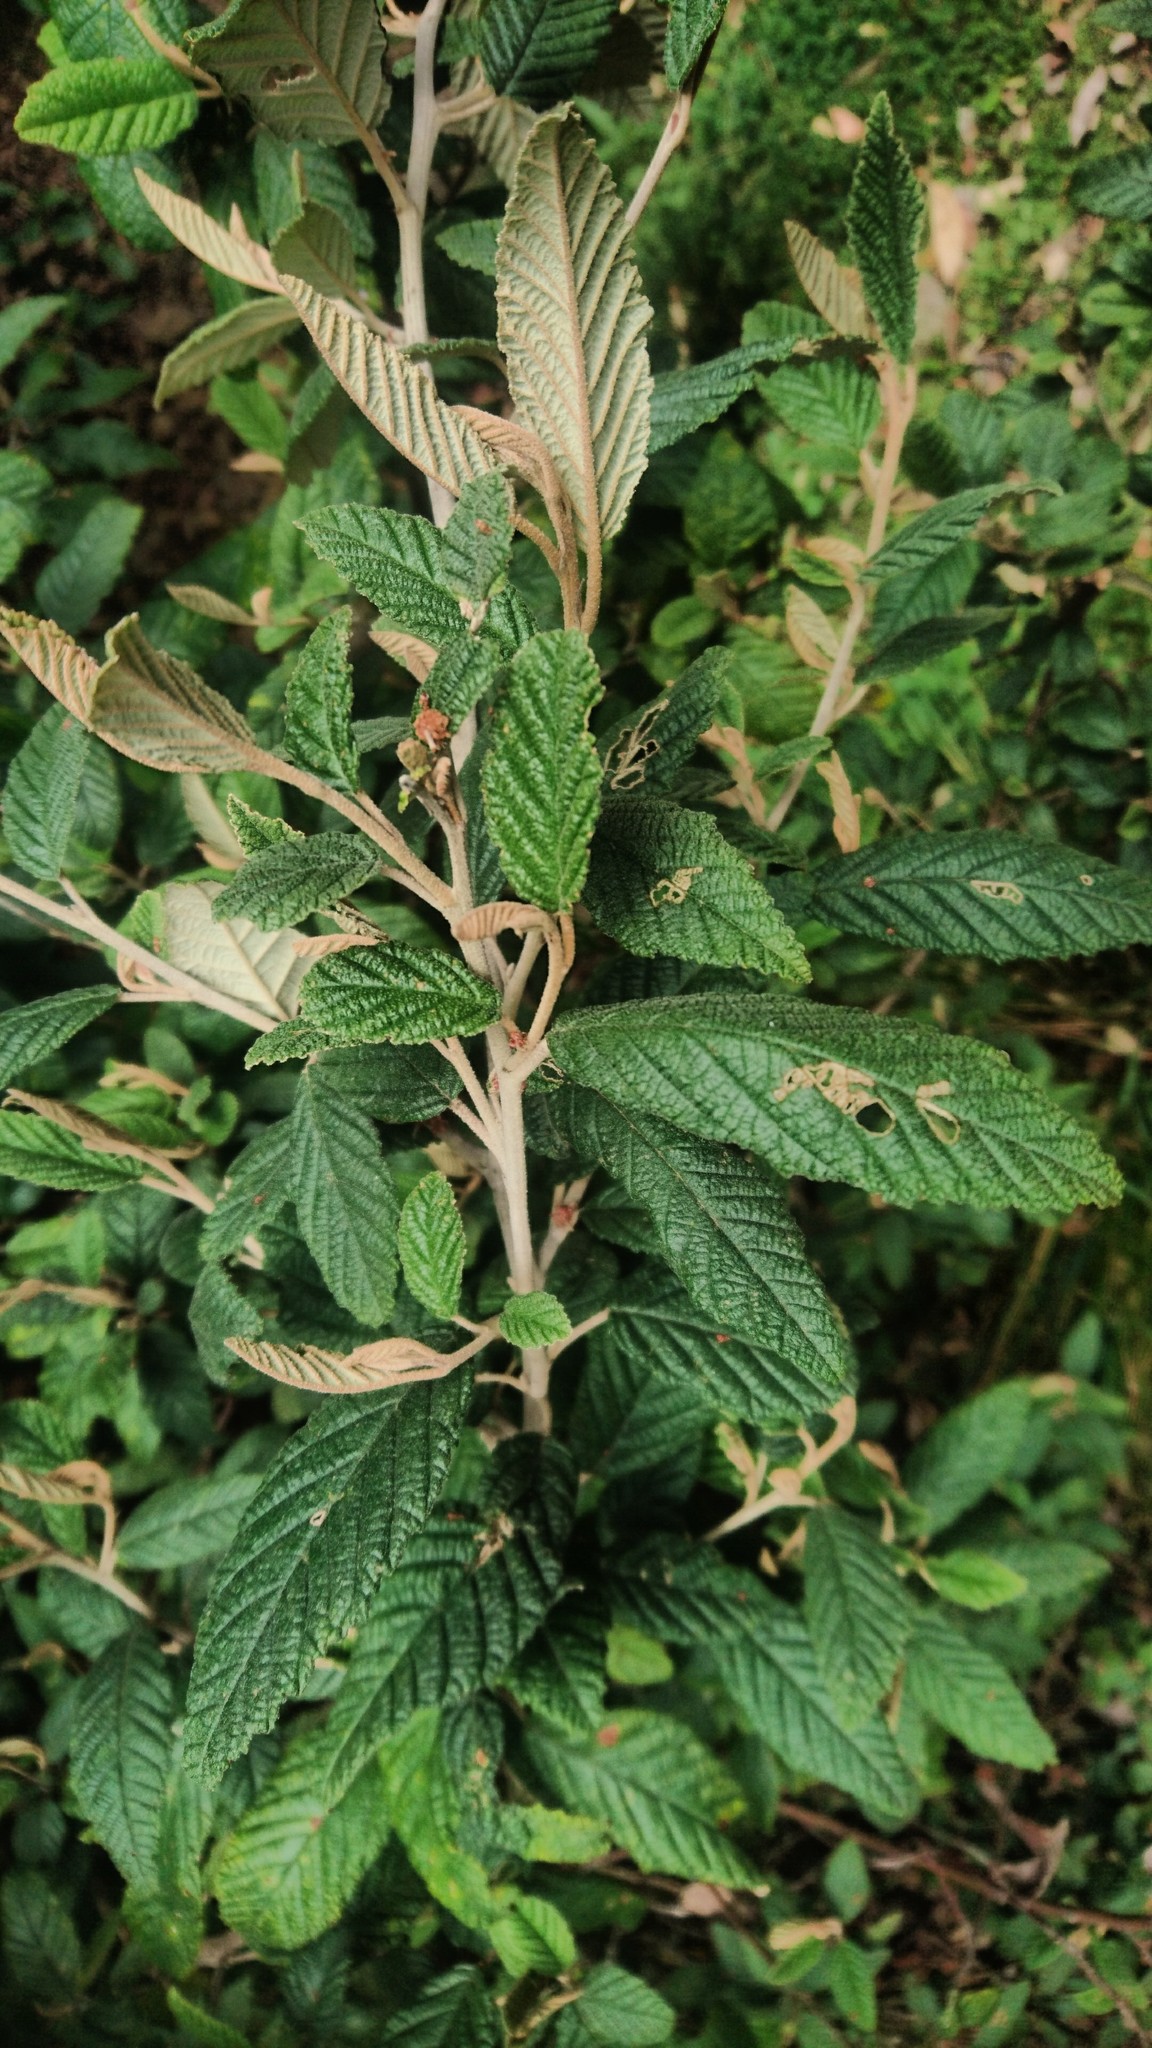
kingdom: Plantae
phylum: Tracheophyta
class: Magnoliopsida
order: Rosales
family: Rhamnaceae
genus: Pomaderris
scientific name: Pomaderris apetala
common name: Hazel pomaderris
